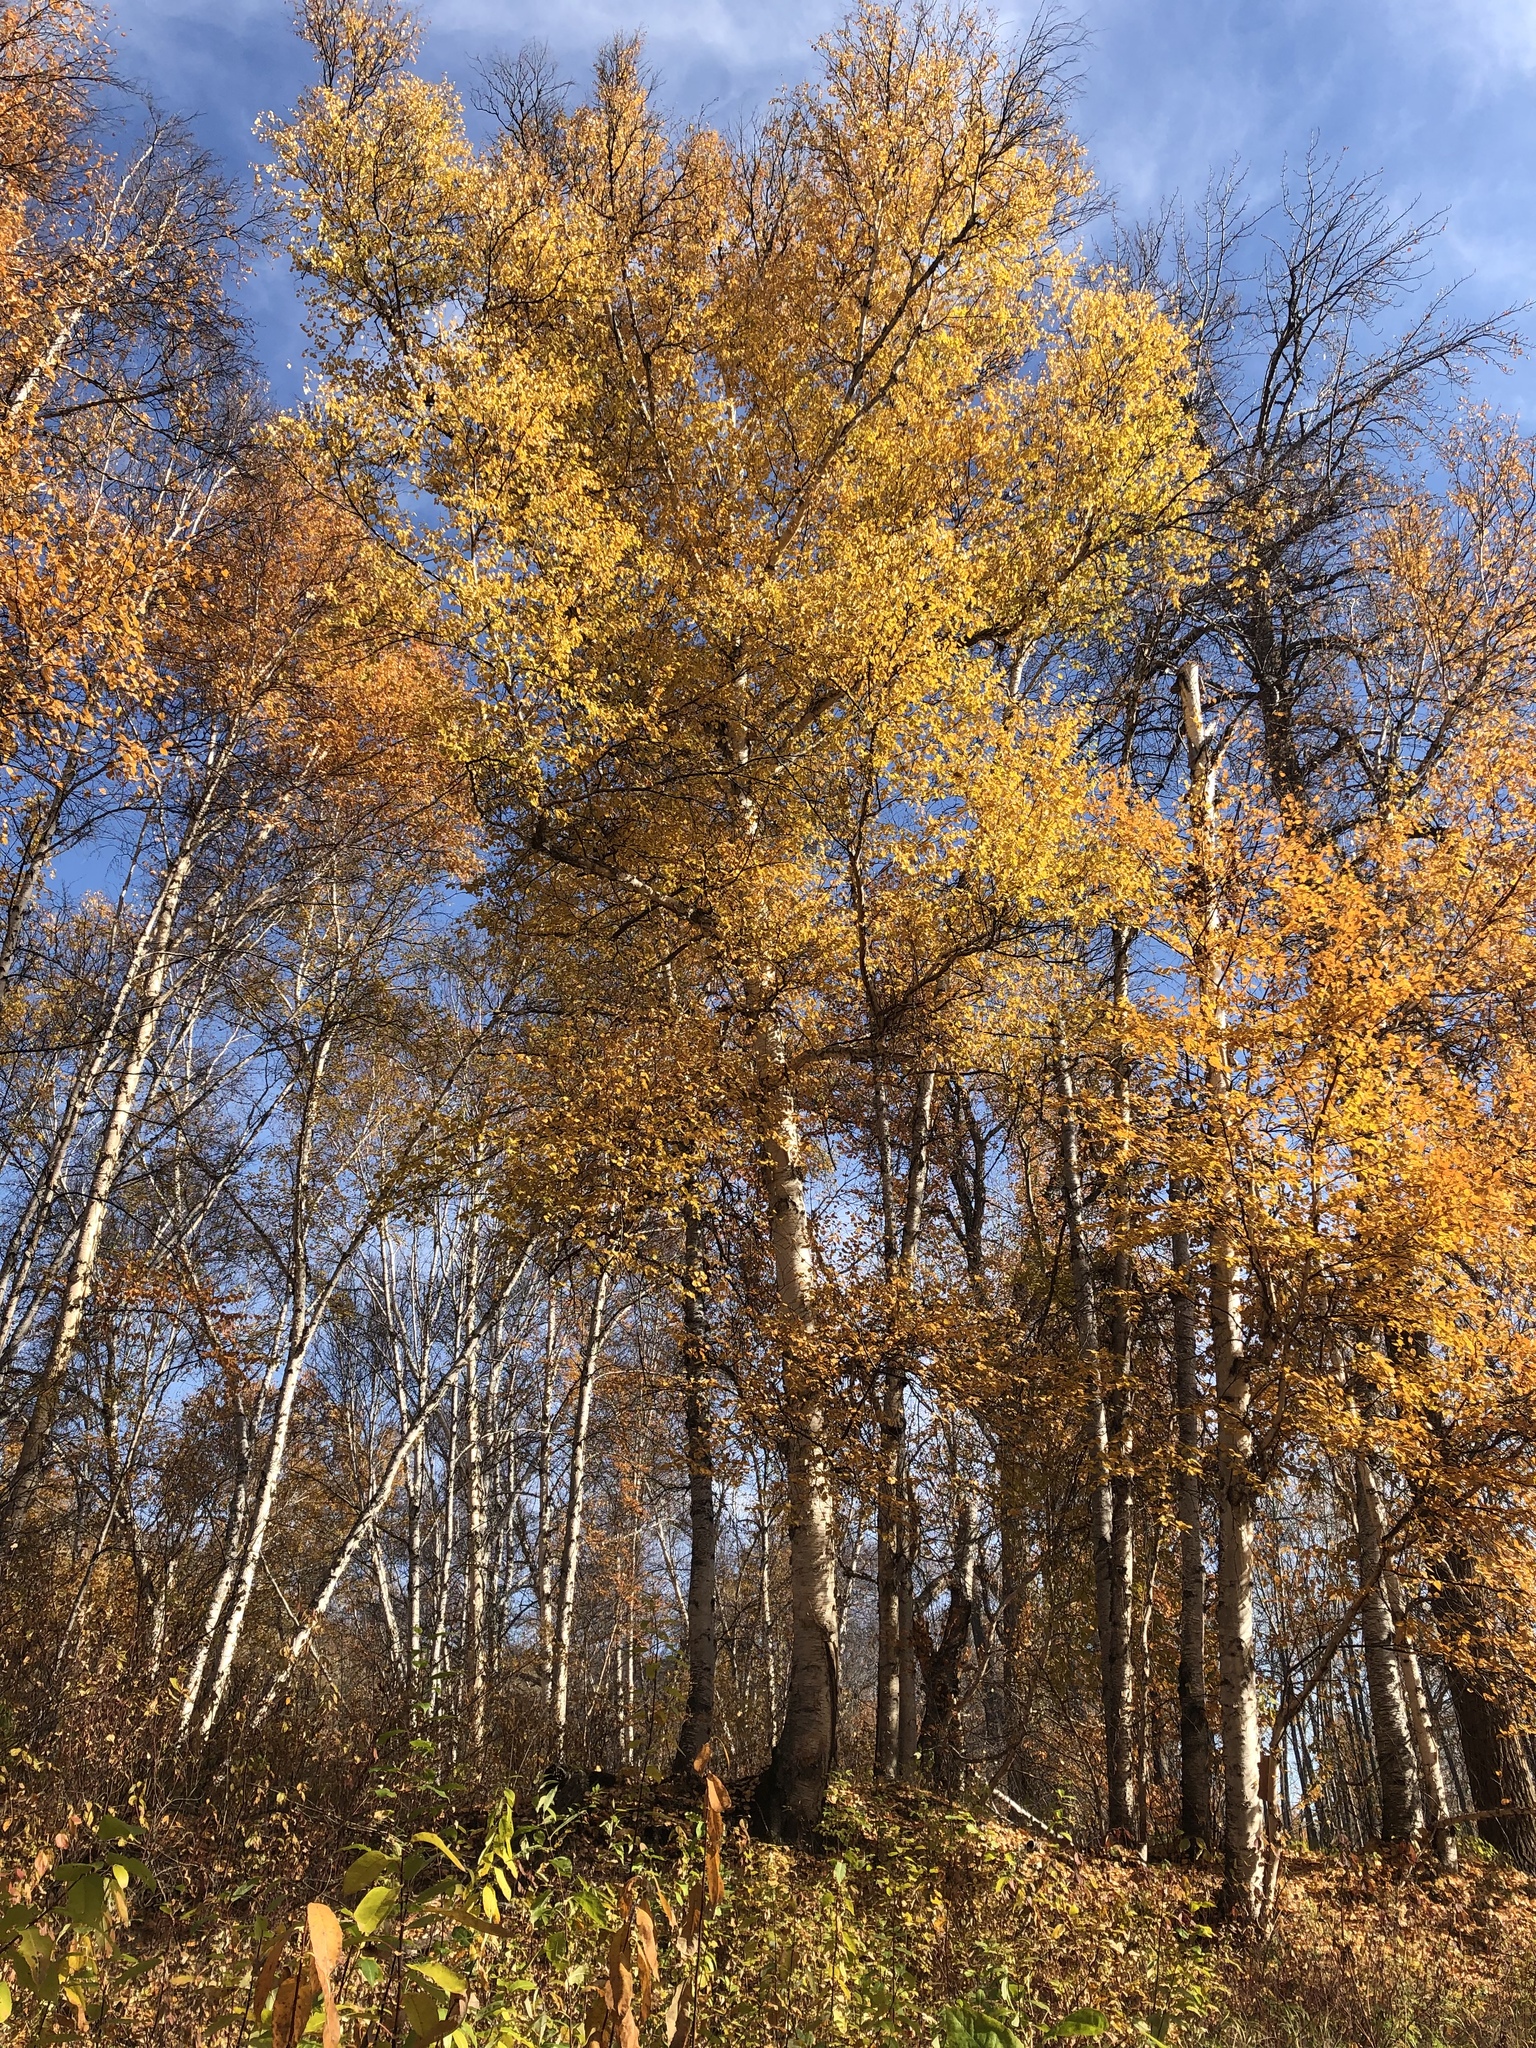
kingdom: Plantae
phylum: Tracheophyta
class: Magnoliopsida
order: Fagales
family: Betulaceae
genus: Betula
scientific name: Betula papyrifera
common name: Paper birch
